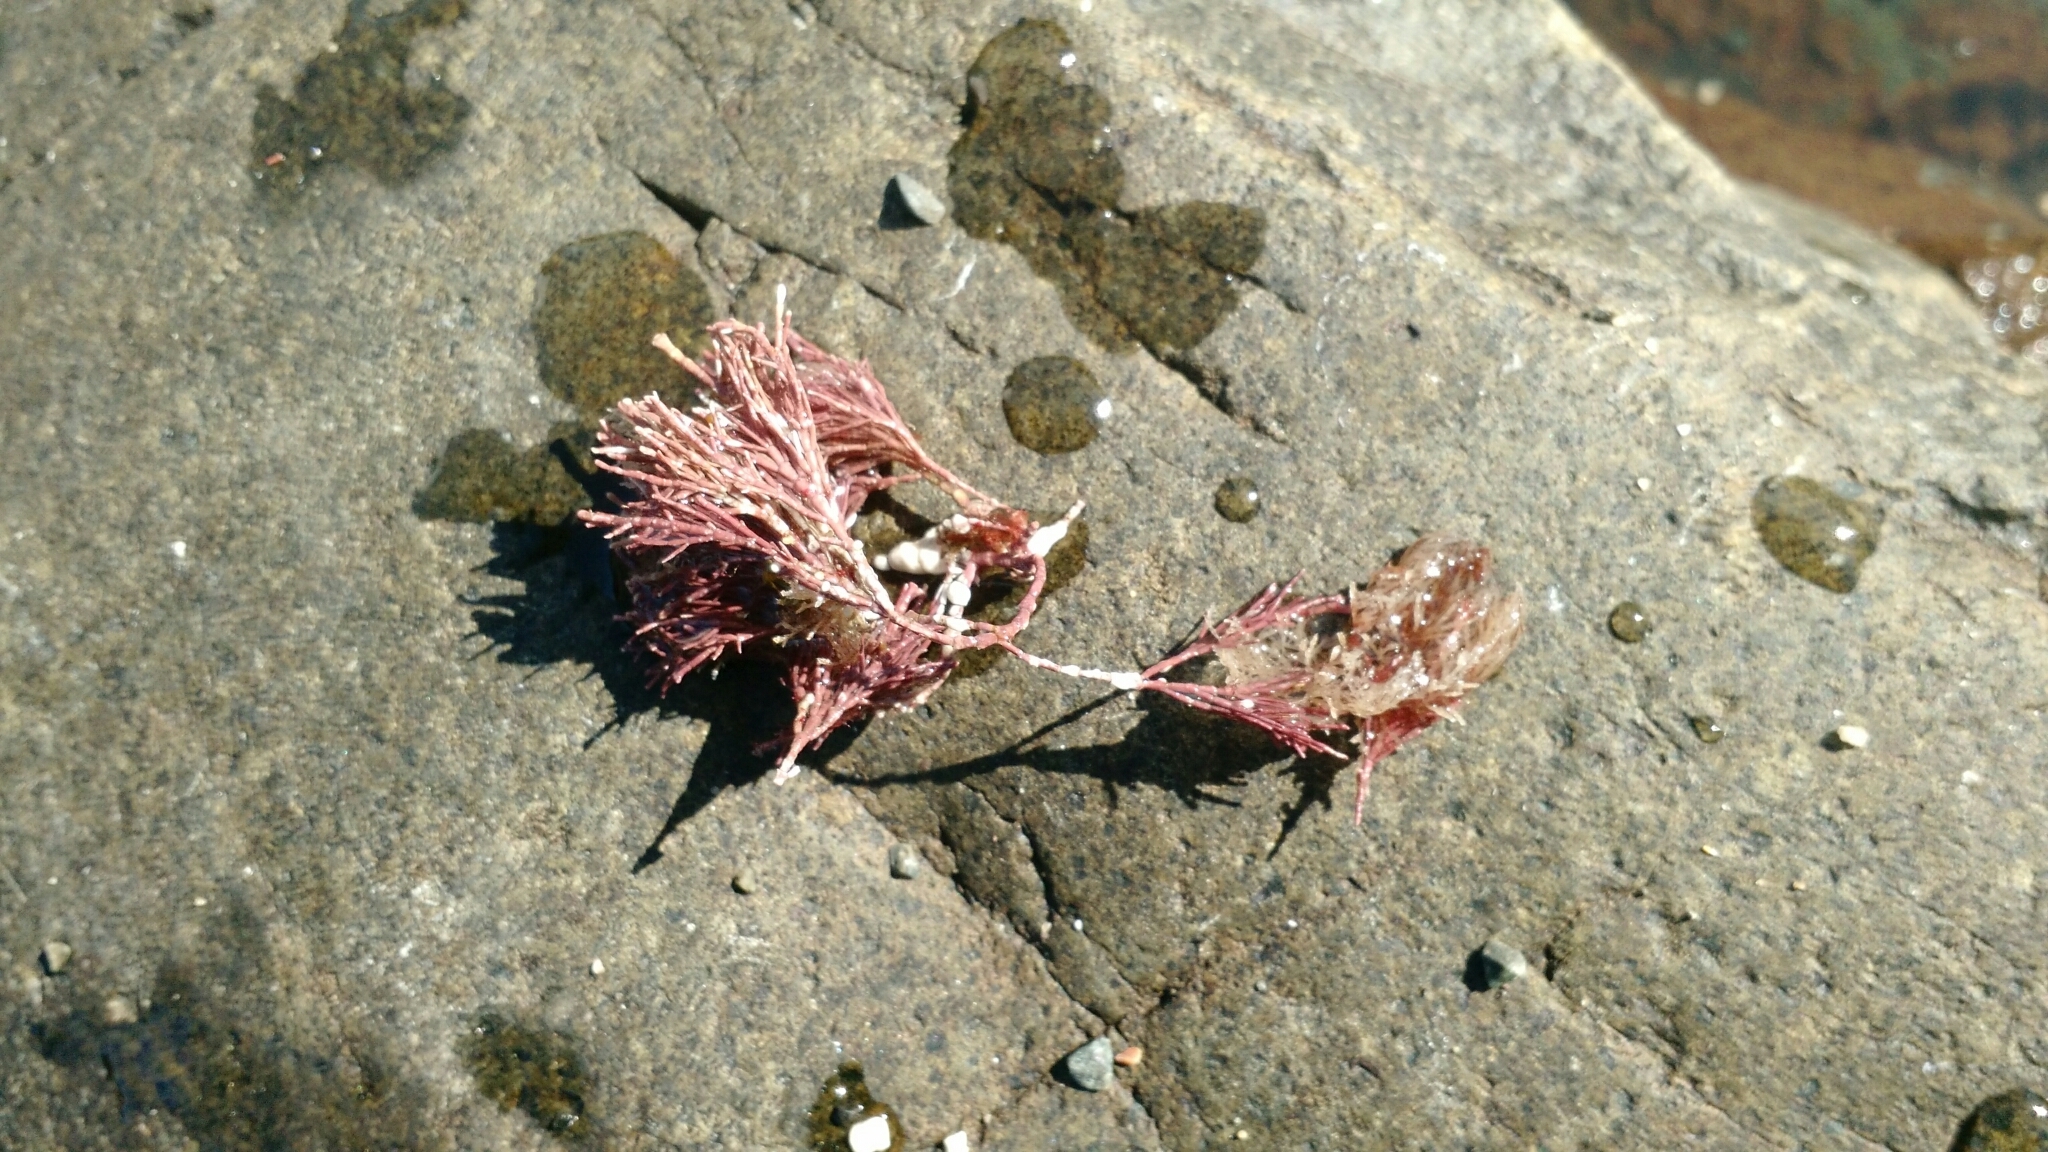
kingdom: Plantae
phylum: Rhodophyta
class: Florideophyceae
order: Corallinales
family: Corallinaceae
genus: Corallina
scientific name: Corallina officinalis
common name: Coral weed
